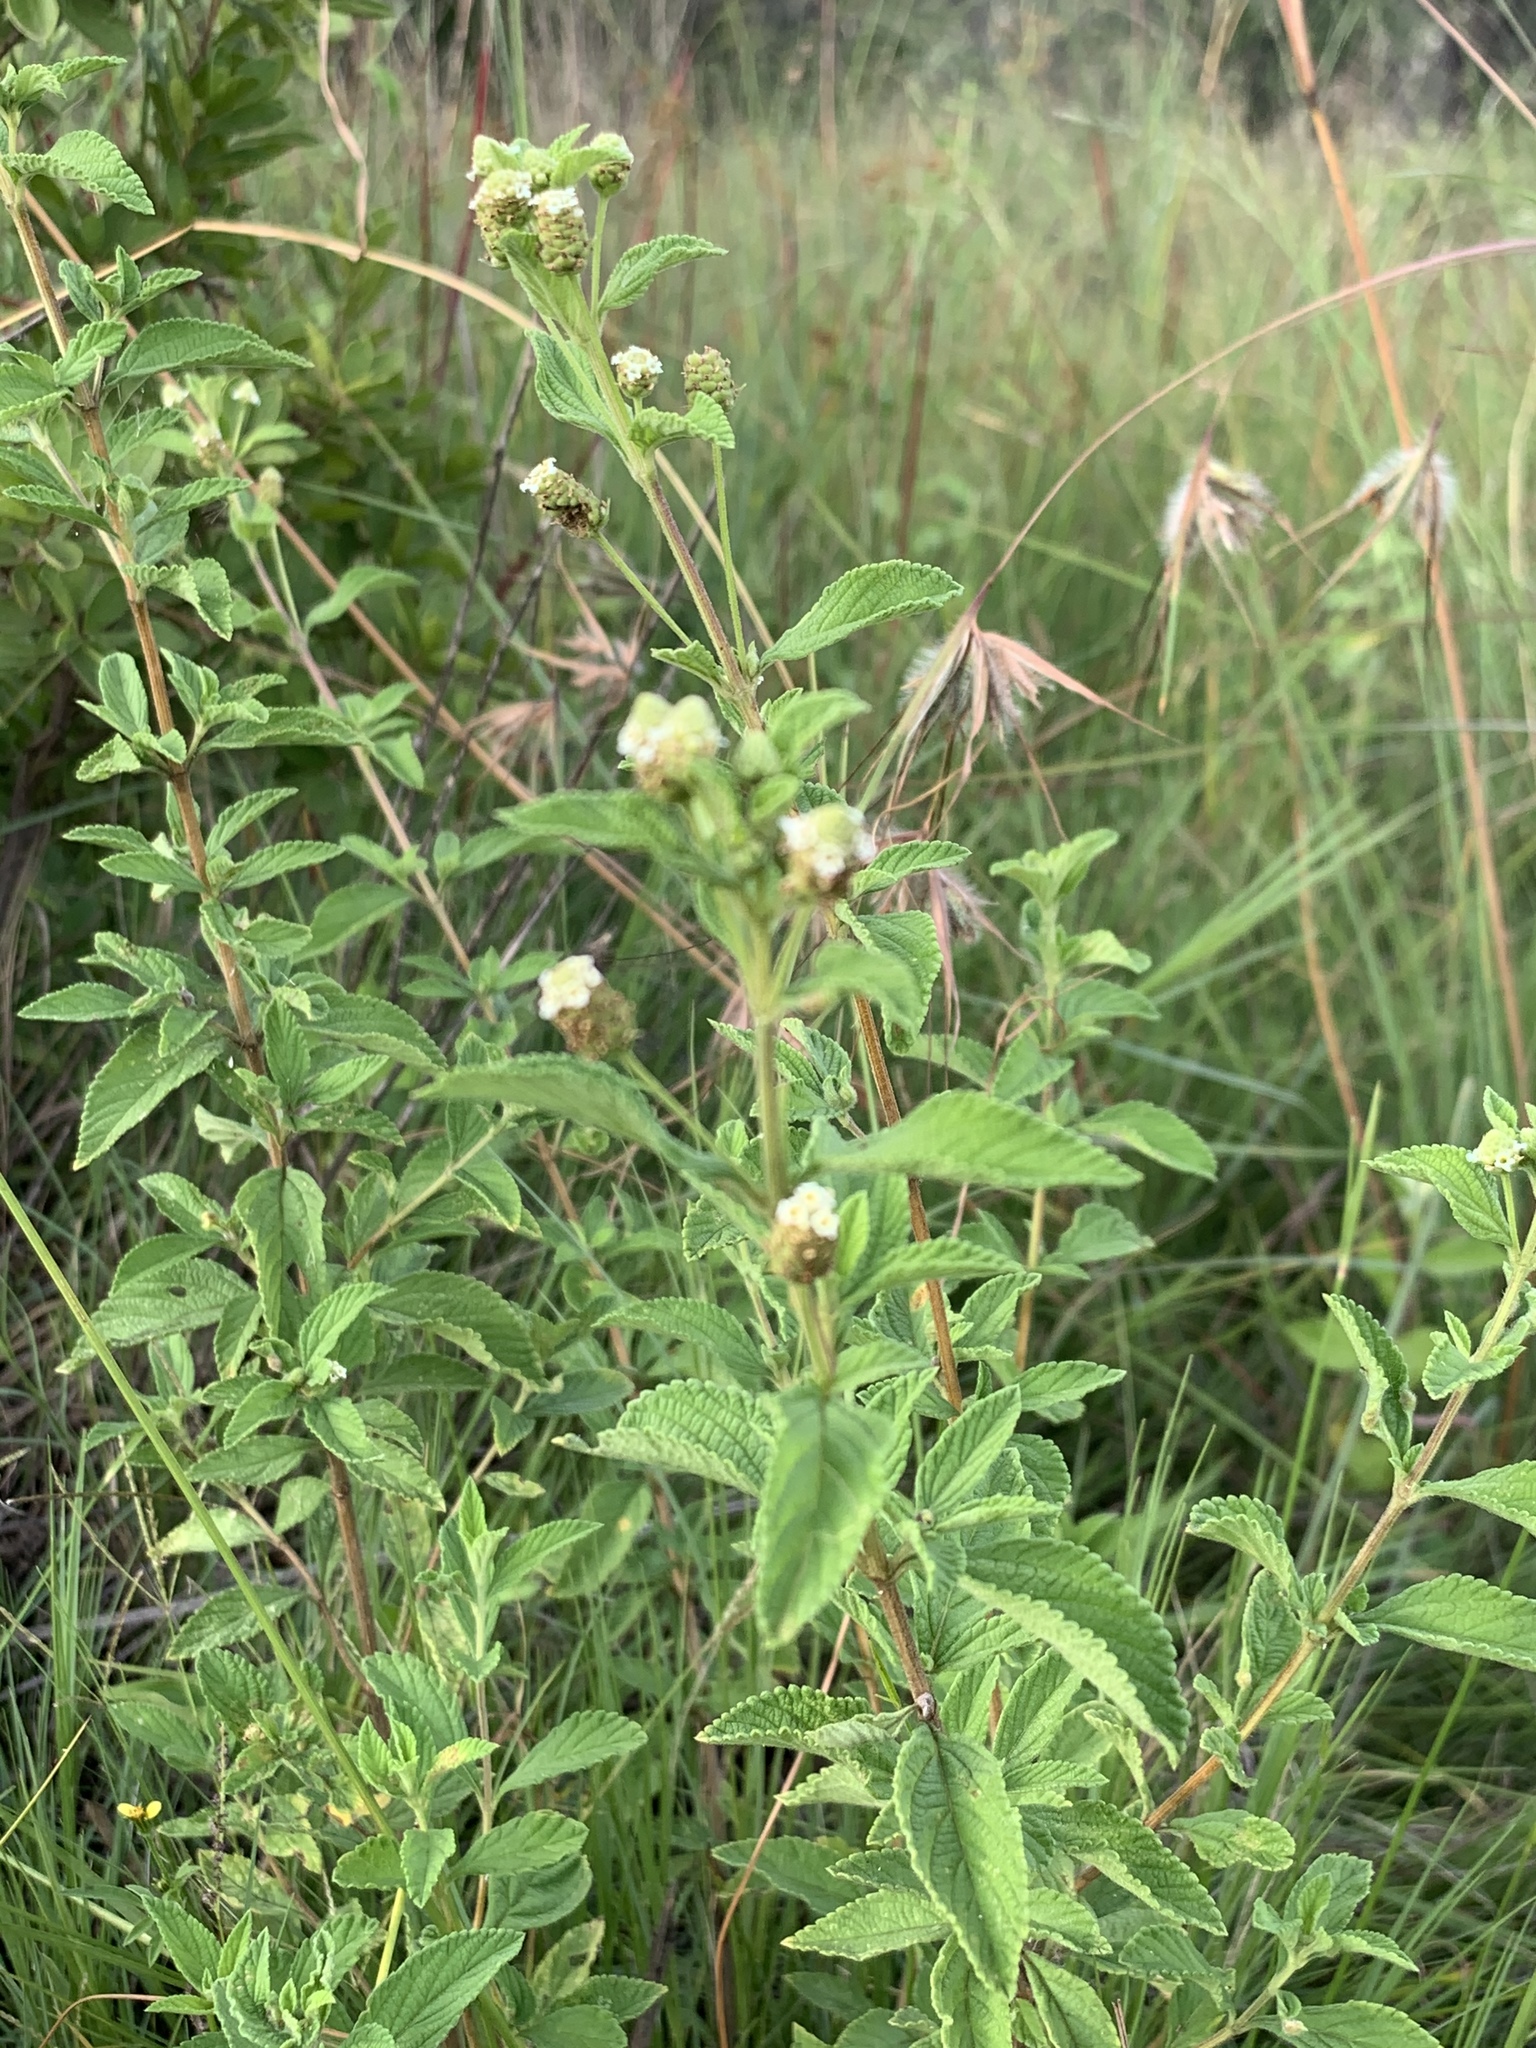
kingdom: Plantae
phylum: Tracheophyta
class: Magnoliopsida
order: Lamiales
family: Verbenaceae
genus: Lippia
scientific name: Lippia javanica
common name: Lemonbush
